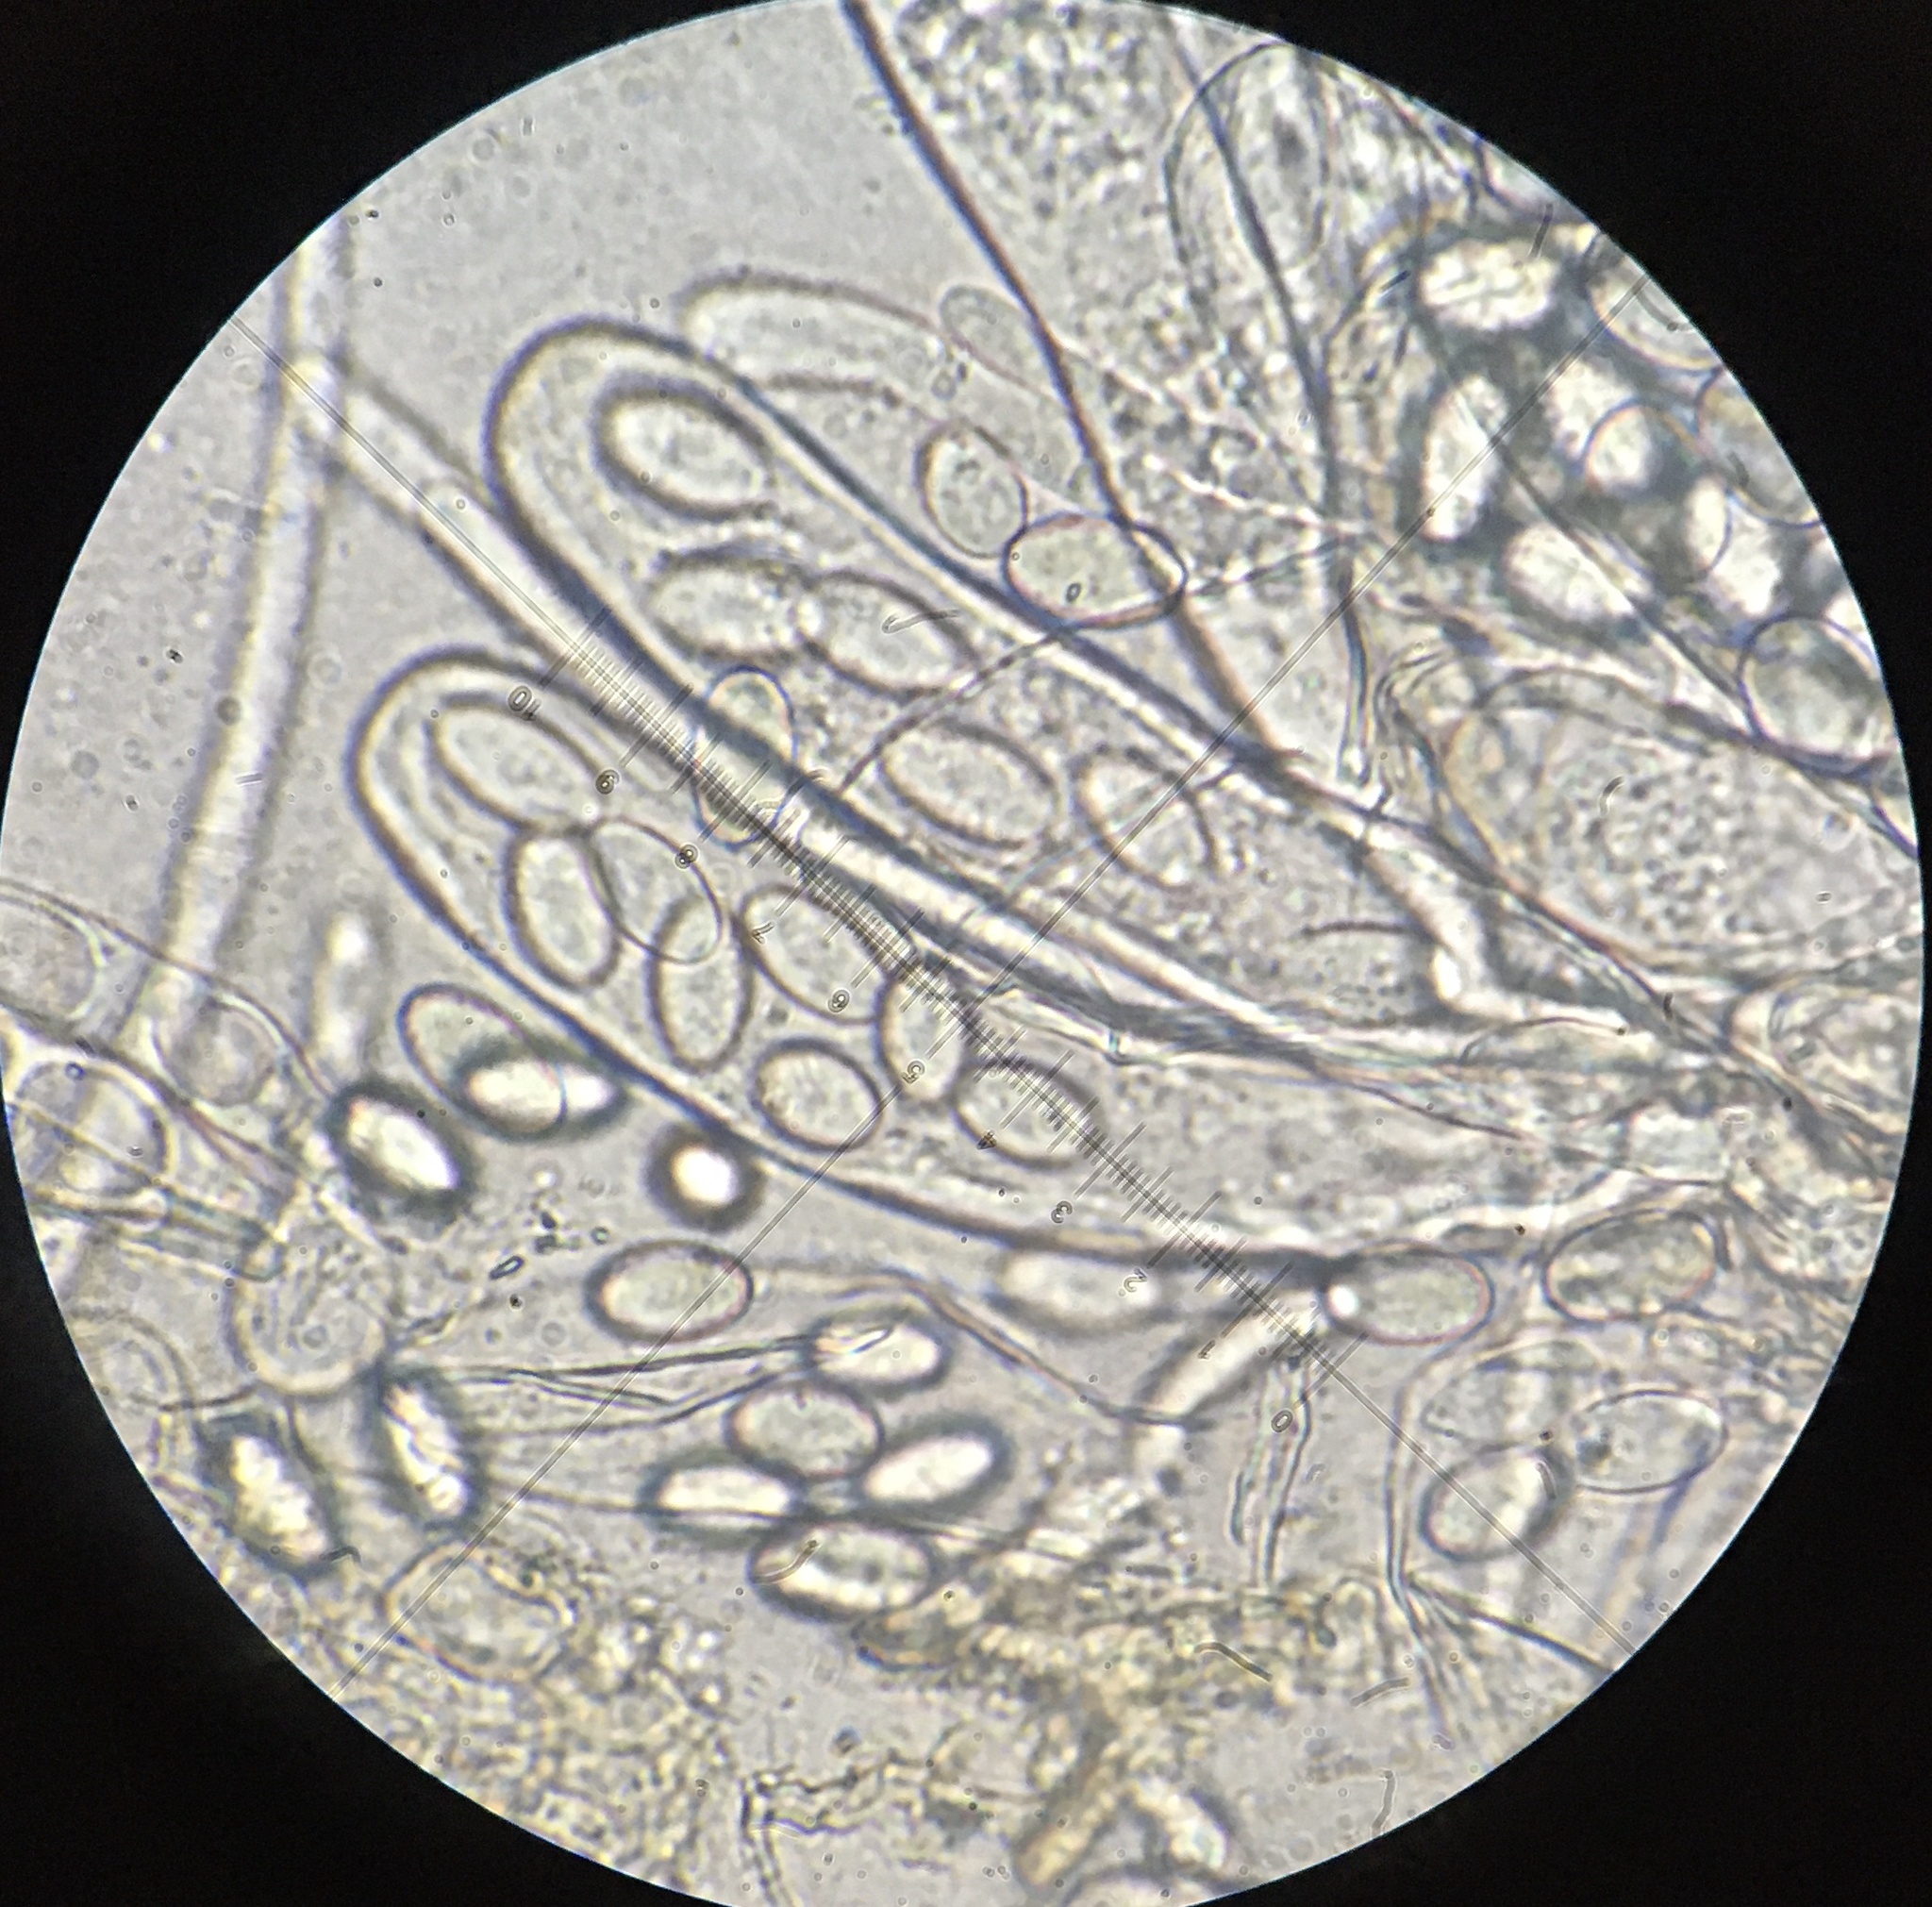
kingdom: Fungi
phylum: Ascomycota
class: Pezizomycetes
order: Pezizales
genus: Coprotus
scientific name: Coprotus ochraceus
